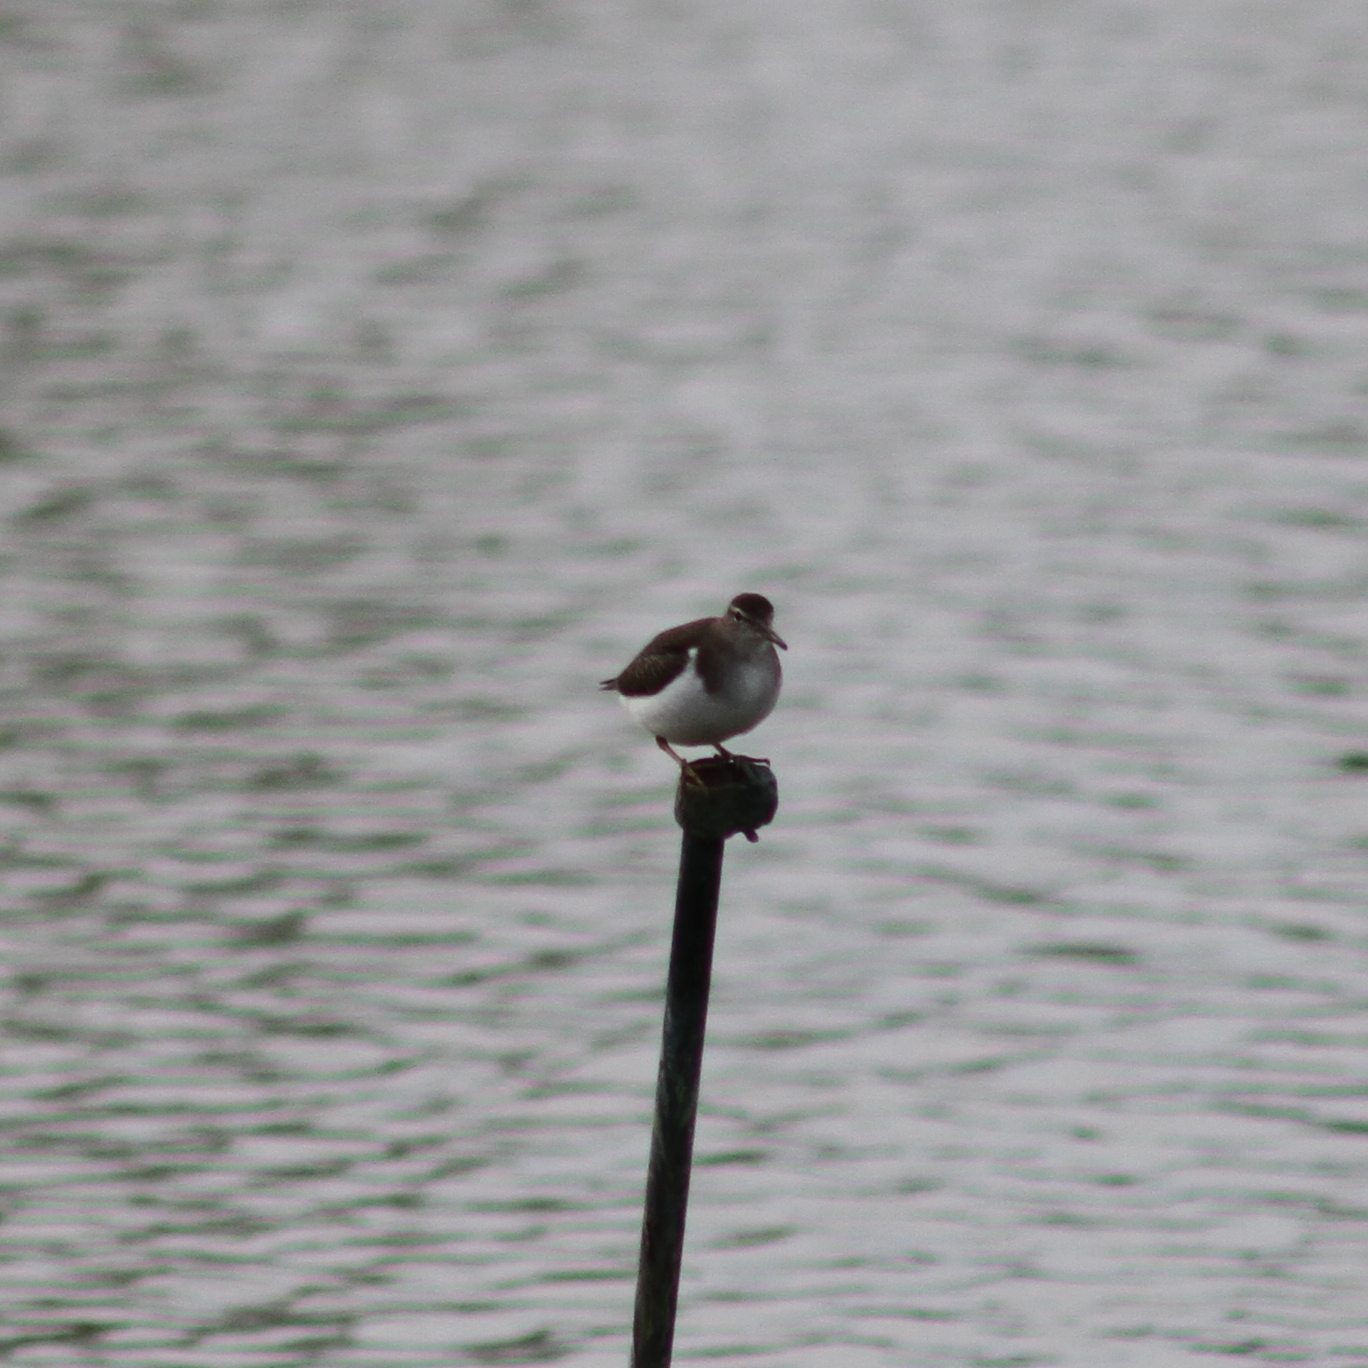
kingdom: Animalia
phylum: Chordata
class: Aves
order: Charadriiformes
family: Scolopacidae
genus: Actitis
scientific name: Actitis macularius
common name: Spotted sandpiper
